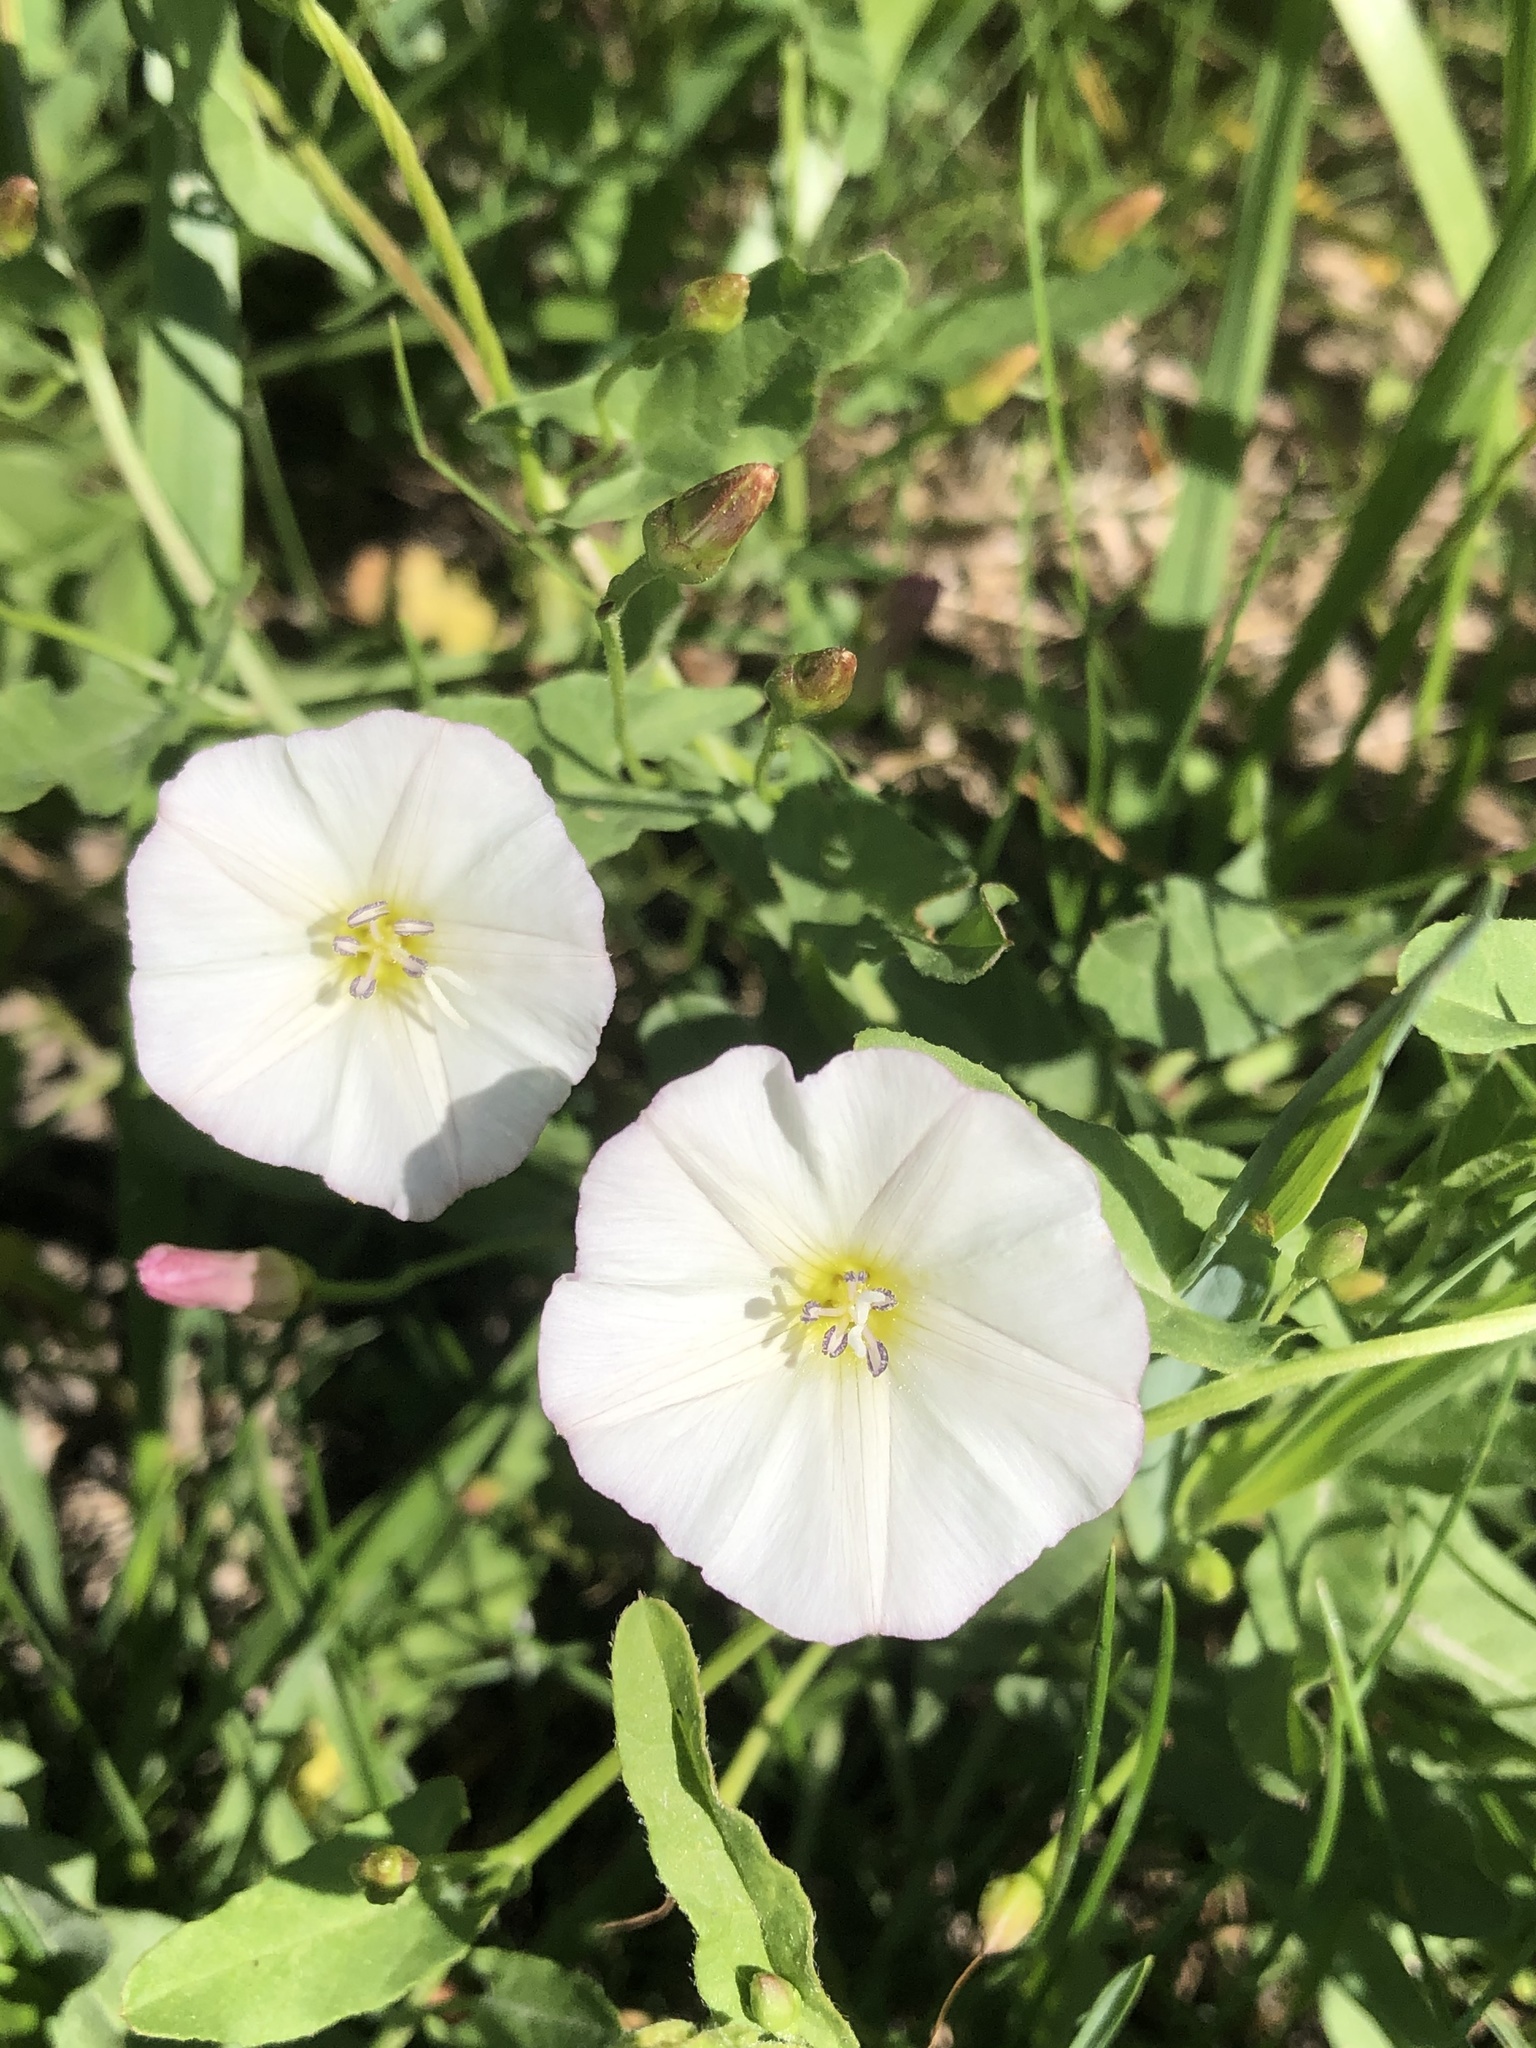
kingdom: Plantae
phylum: Tracheophyta
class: Magnoliopsida
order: Solanales
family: Convolvulaceae
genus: Convolvulus
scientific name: Convolvulus arvensis
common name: Field bindweed
